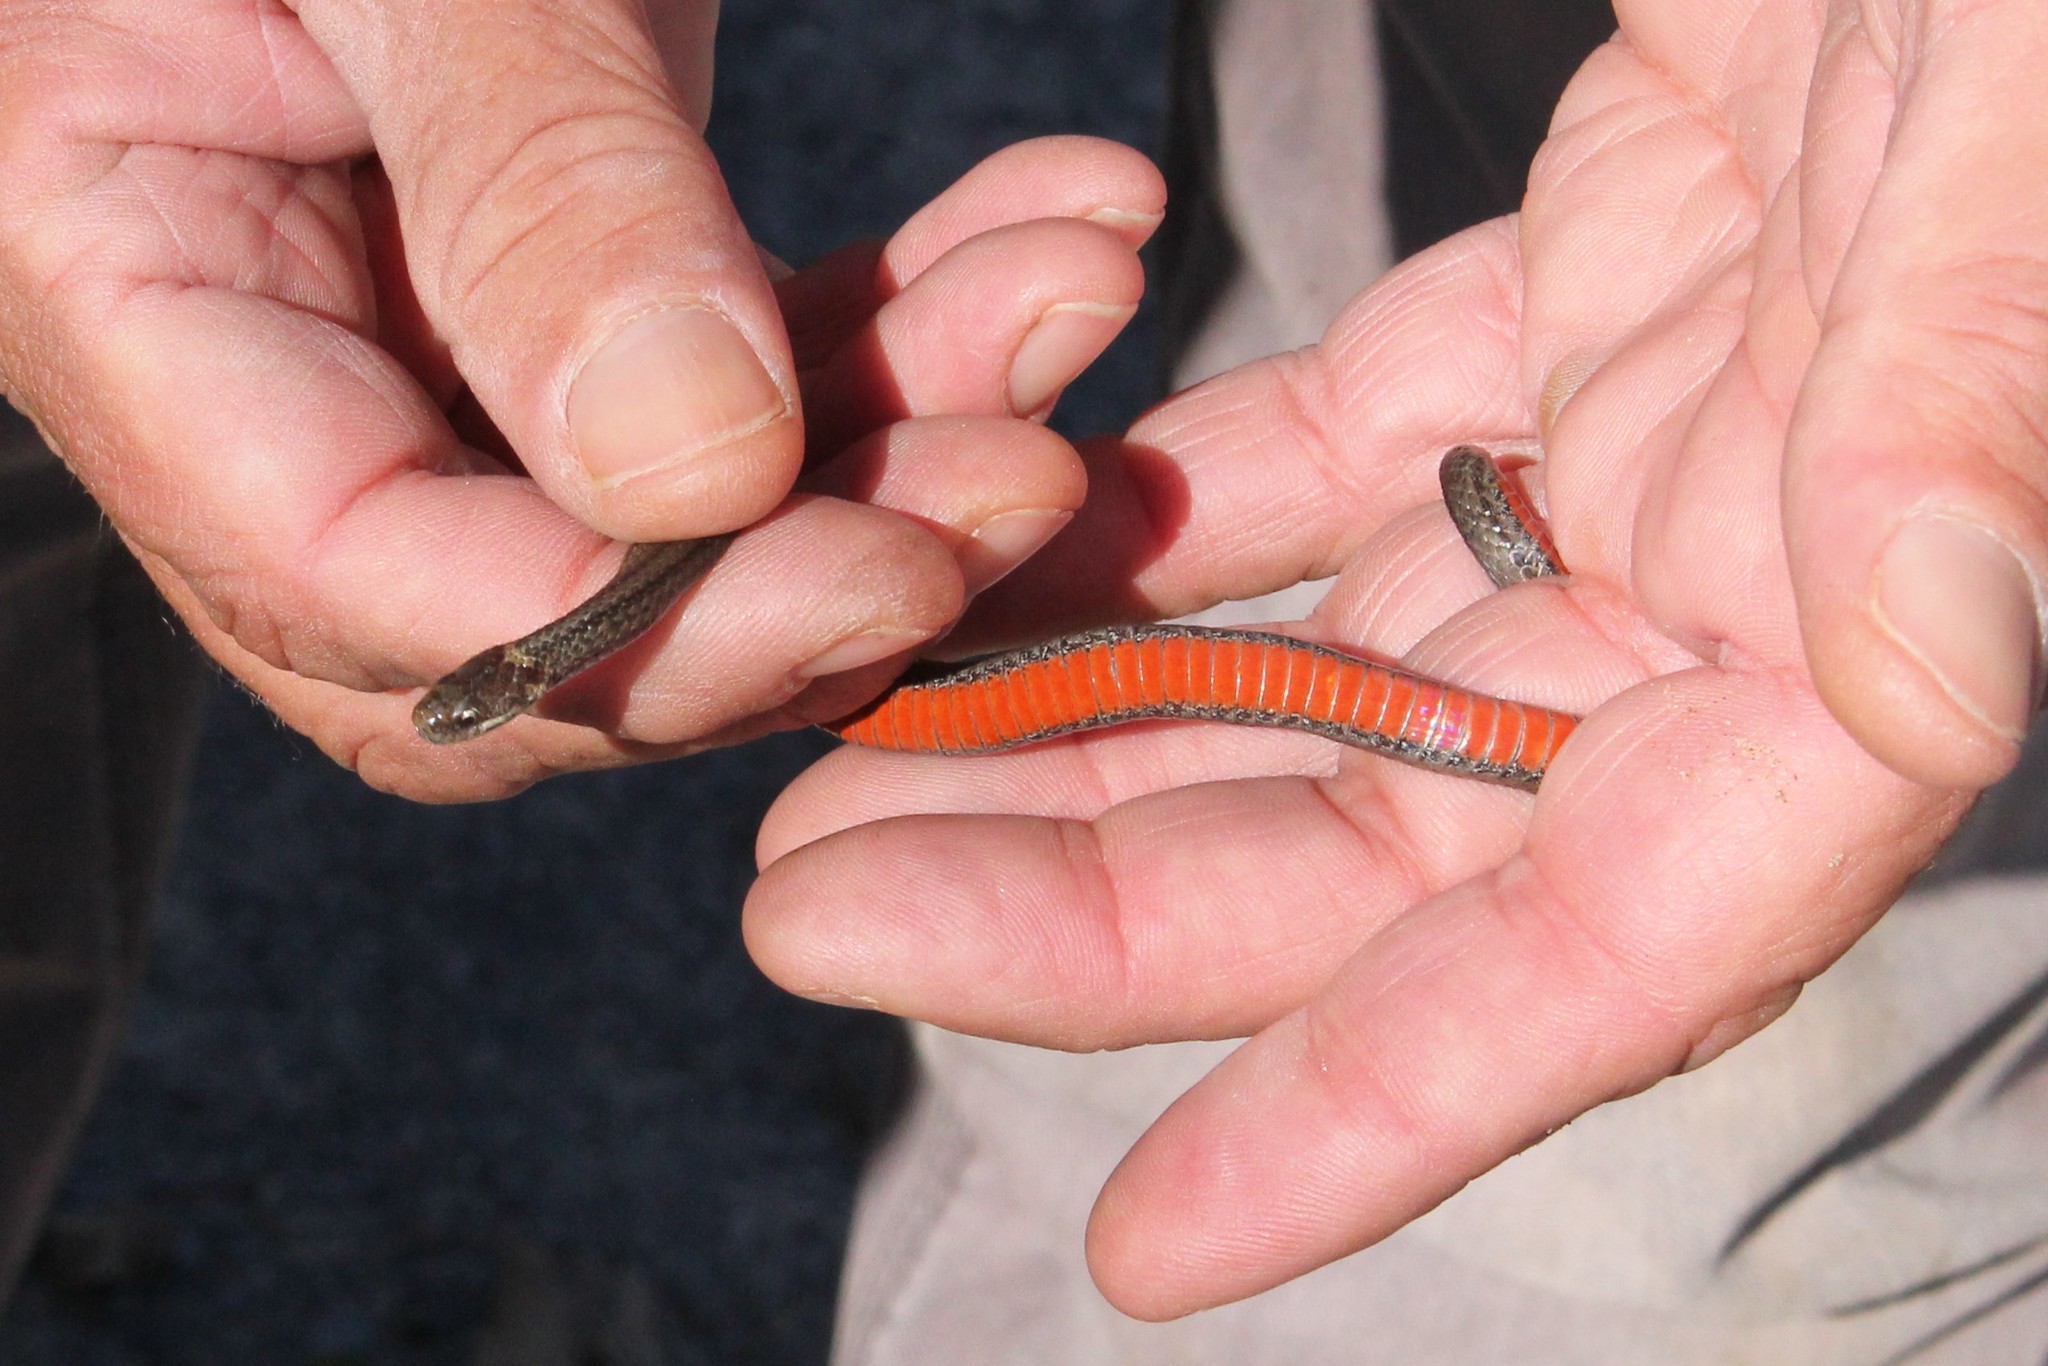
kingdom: Animalia
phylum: Chordata
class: Squamata
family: Colubridae
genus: Storeria
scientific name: Storeria occipitomaculata
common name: Redbelly snake
